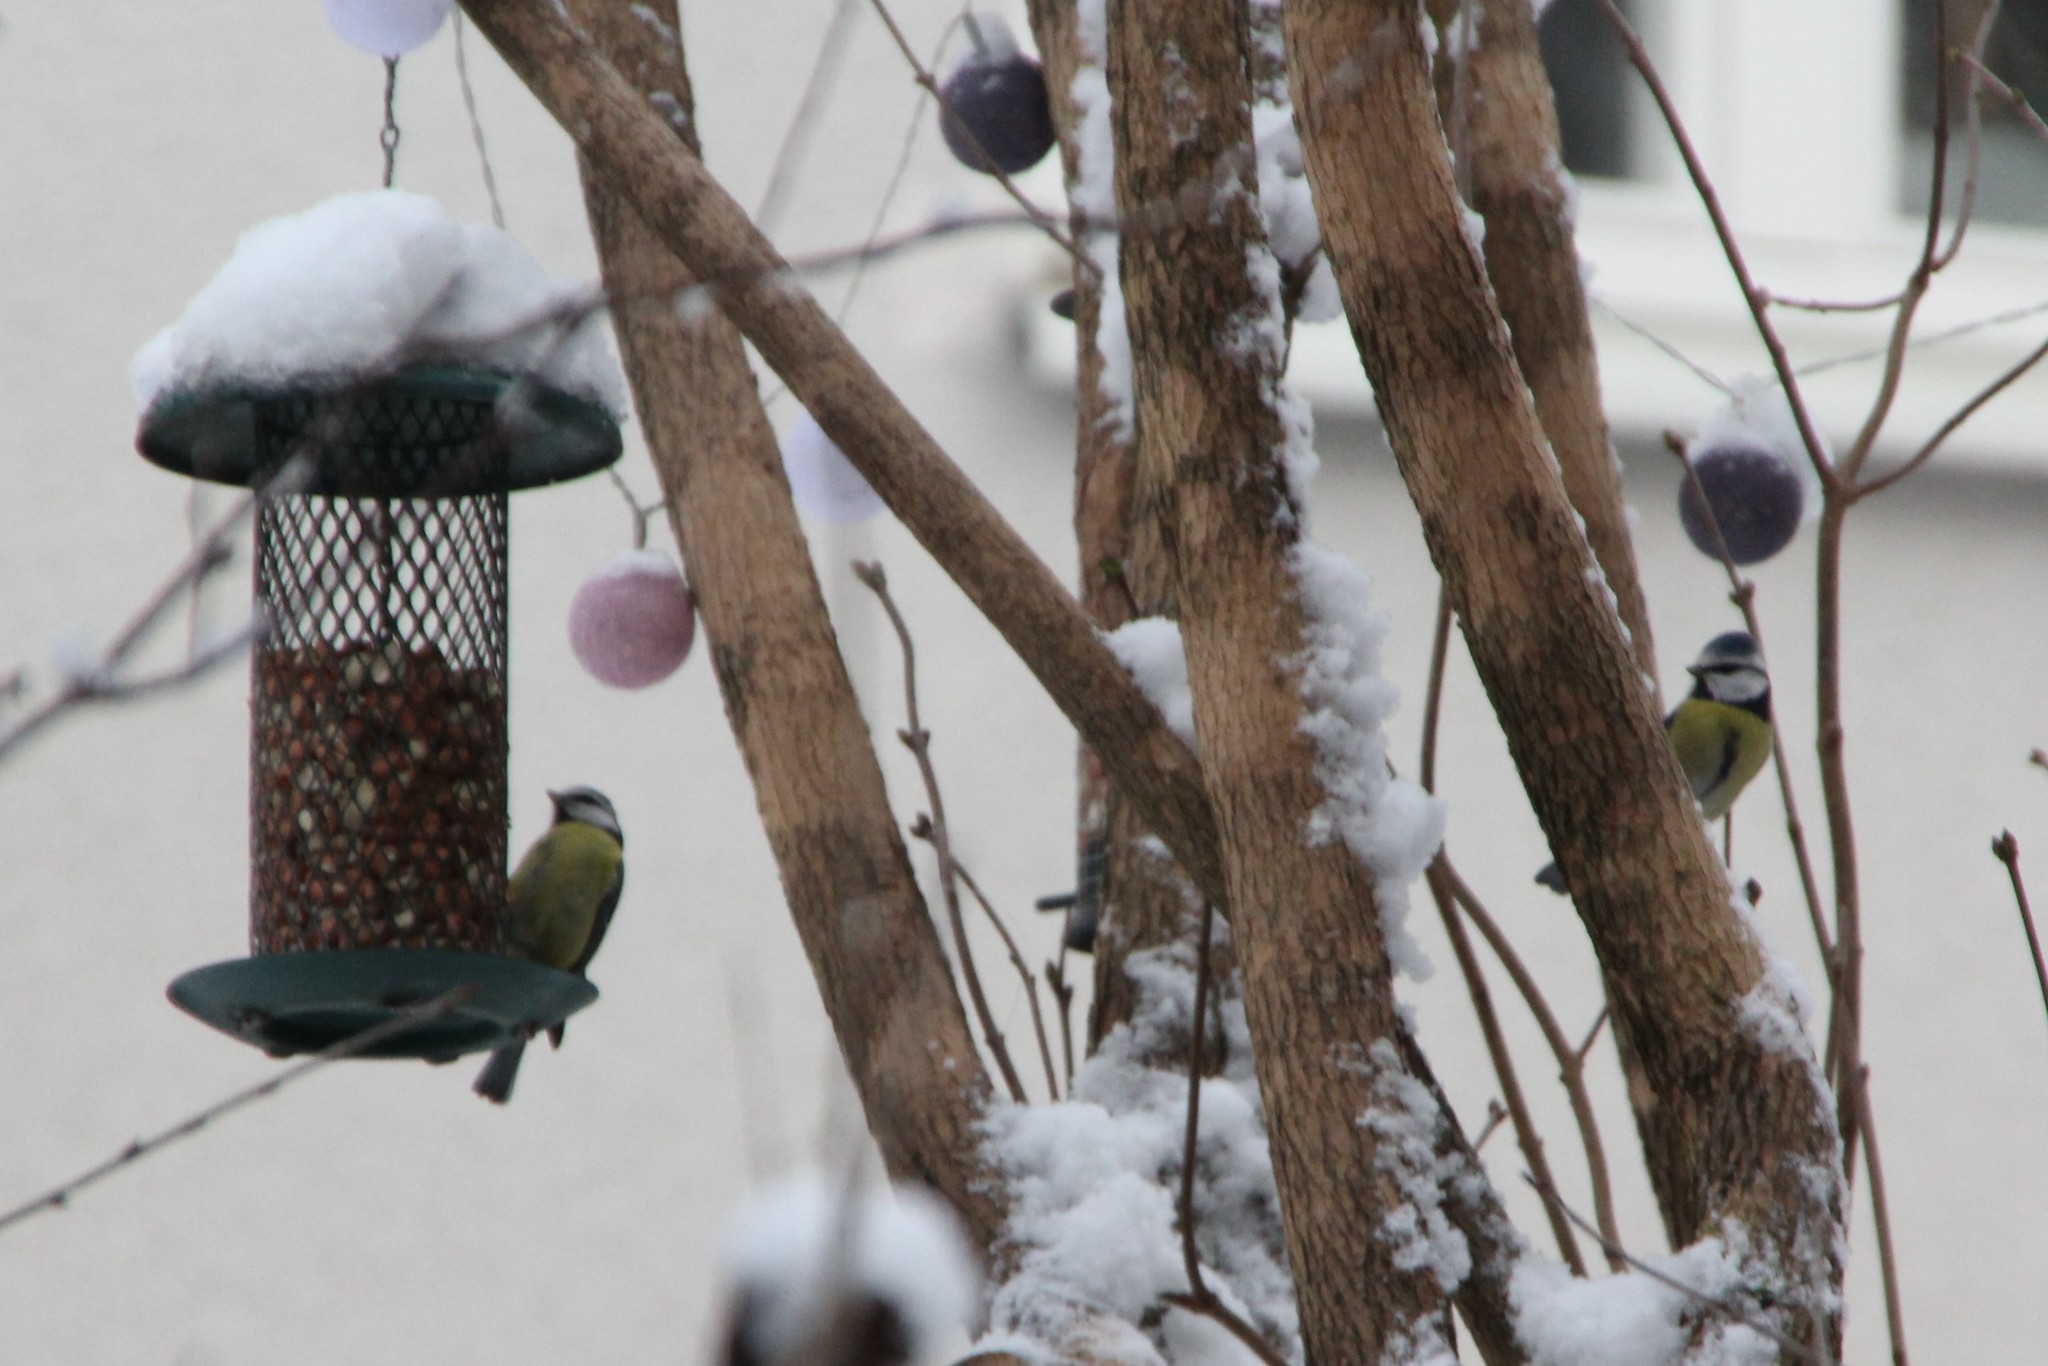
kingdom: Animalia
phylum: Chordata
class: Aves
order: Passeriformes
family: Paridae
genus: Cyanistes
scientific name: Cyanistes caeruleus
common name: Eurasian blue tit
